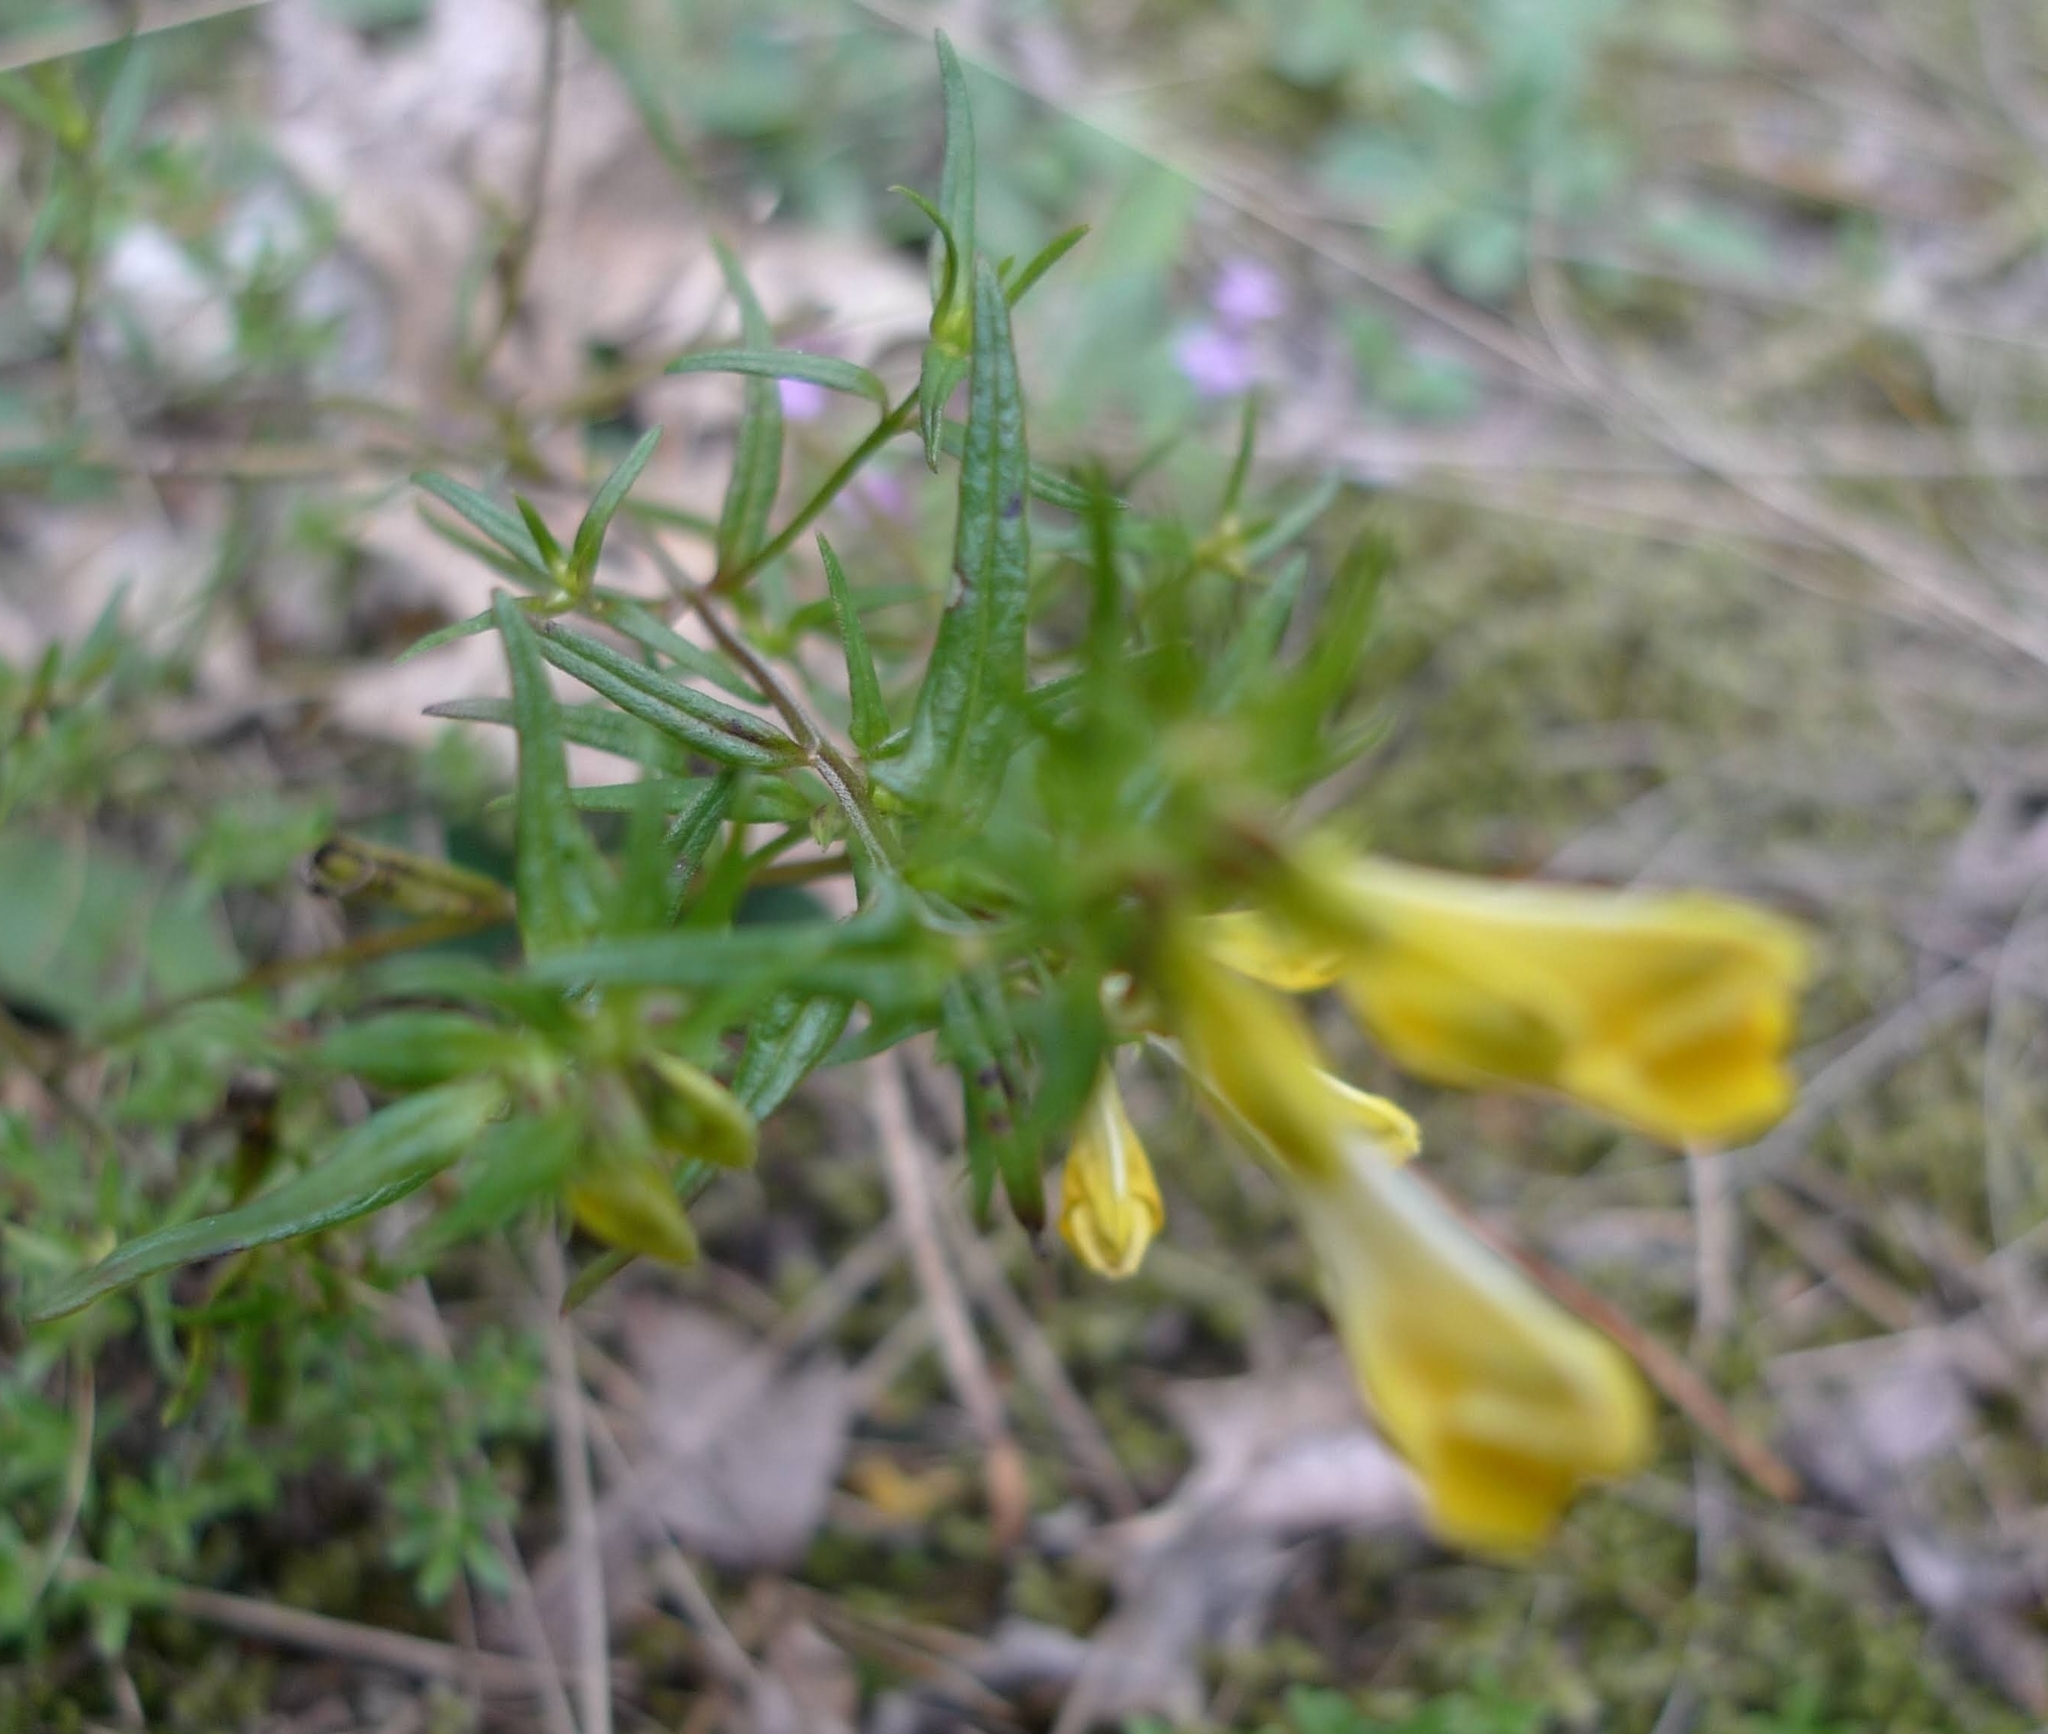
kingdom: Plantae
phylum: Tracheophyta
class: Magnoliopsida
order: Lamiales
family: Orobanchaceae
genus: Melampyrum
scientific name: Melampyrum pratense
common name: Common cow-wheat
